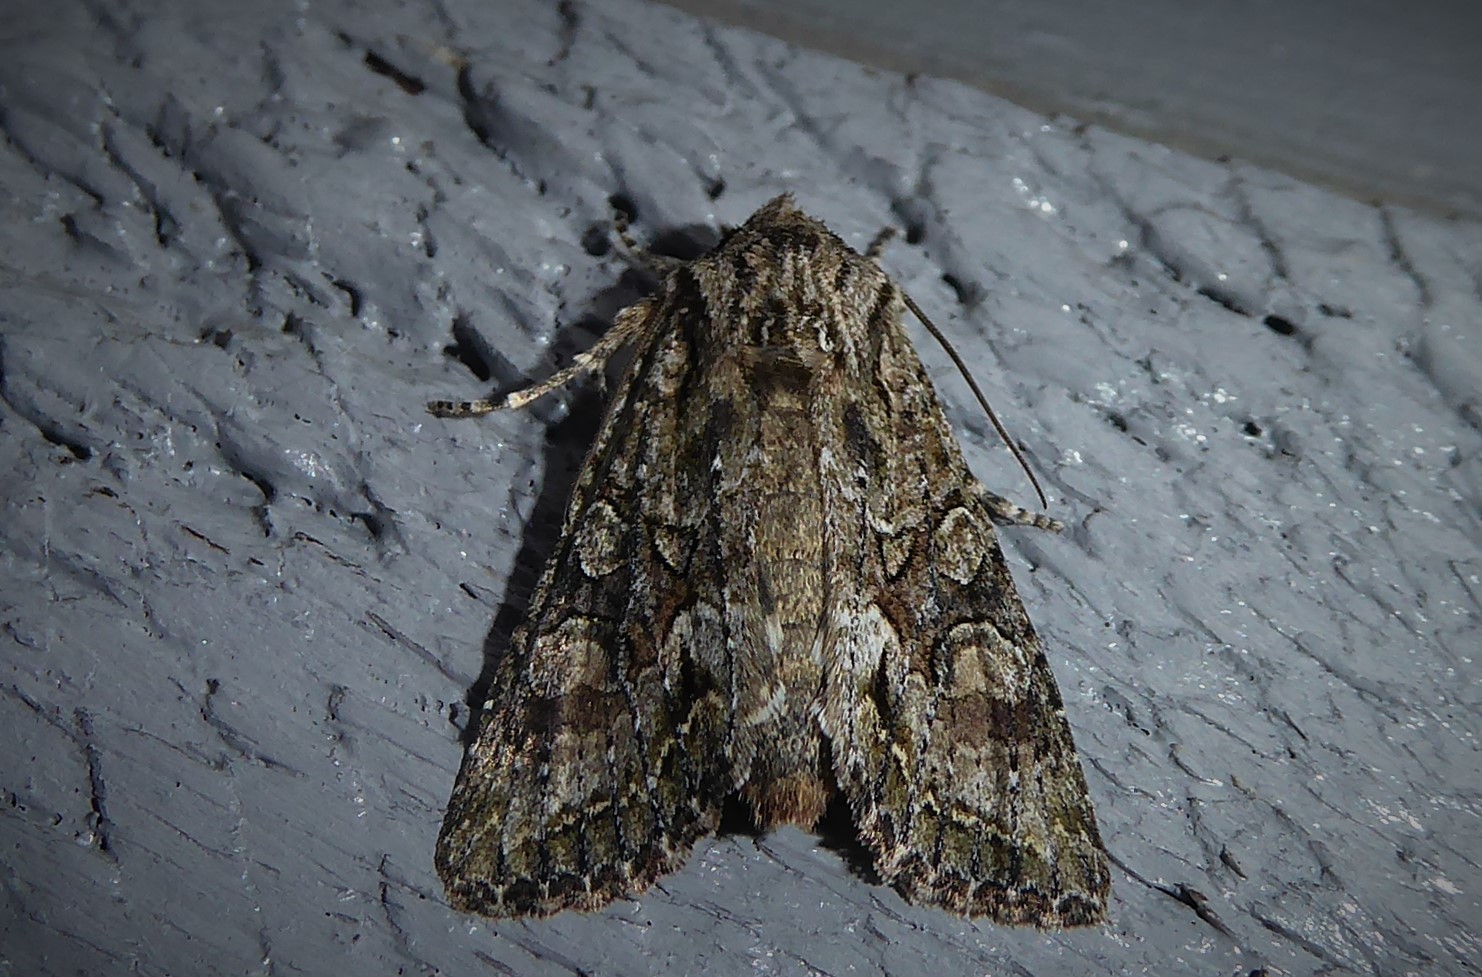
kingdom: Animalia
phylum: Arthropoda
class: Insecta
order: Lepidoptera
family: Noctuidae
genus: Ichneutica
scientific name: Ichneutica mutans
